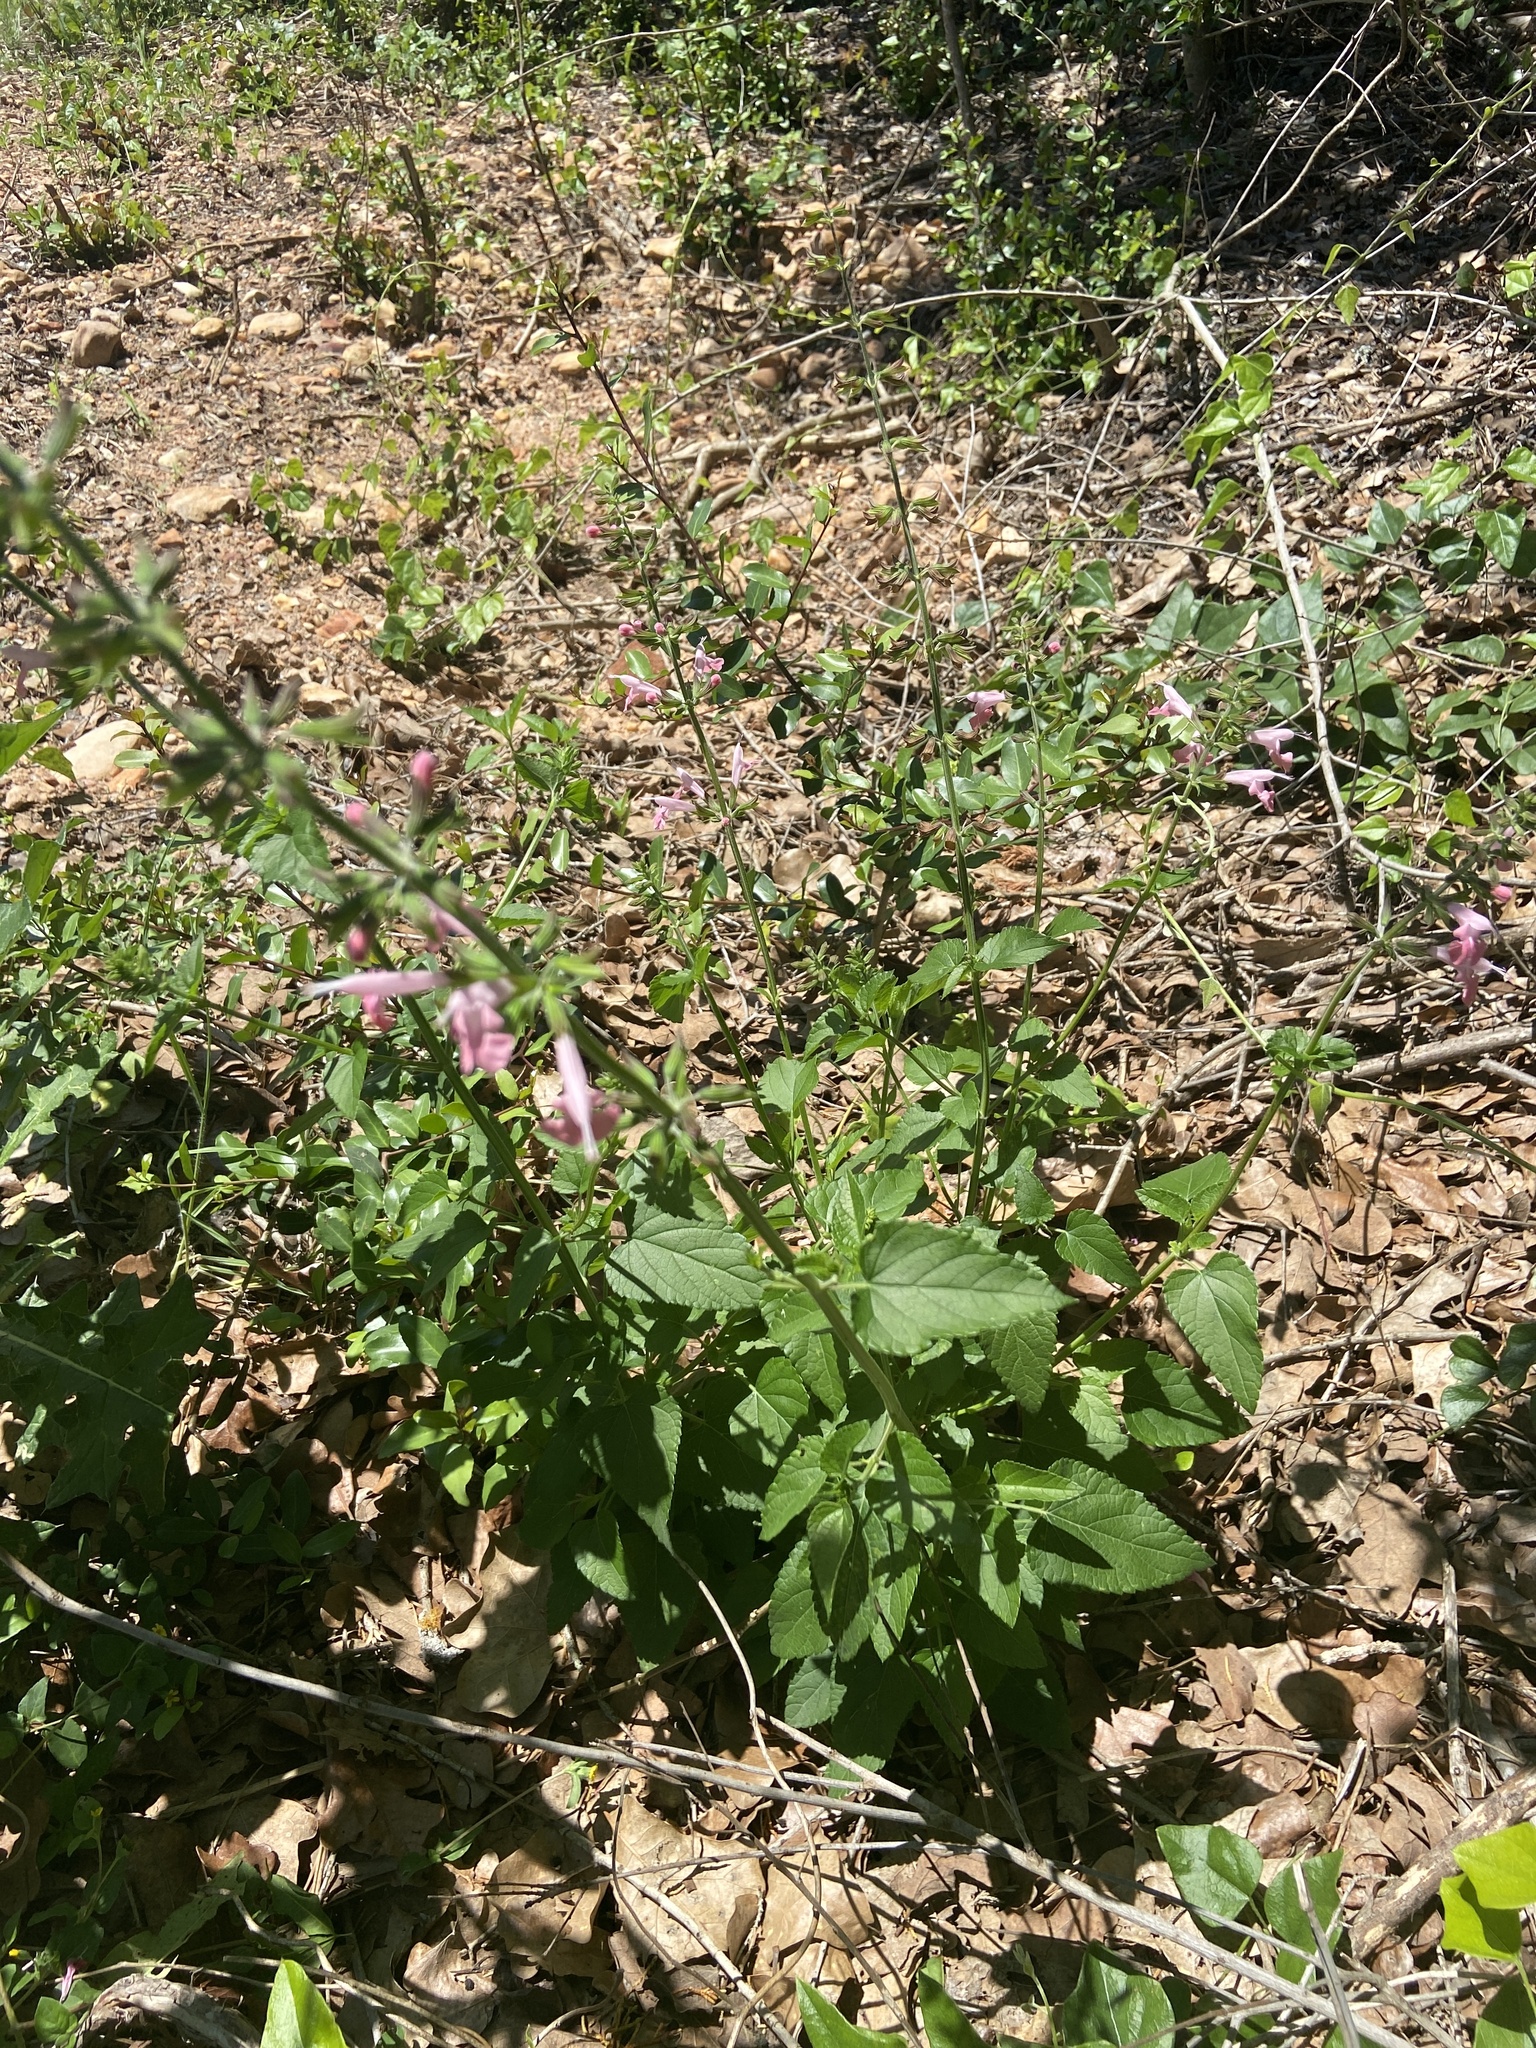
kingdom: Plantae
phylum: Tracheophyta
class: Magnoliopsida
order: Lamiales
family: Lamiaceae
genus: Salvia
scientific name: Salvia coccinea
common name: Blood sage
